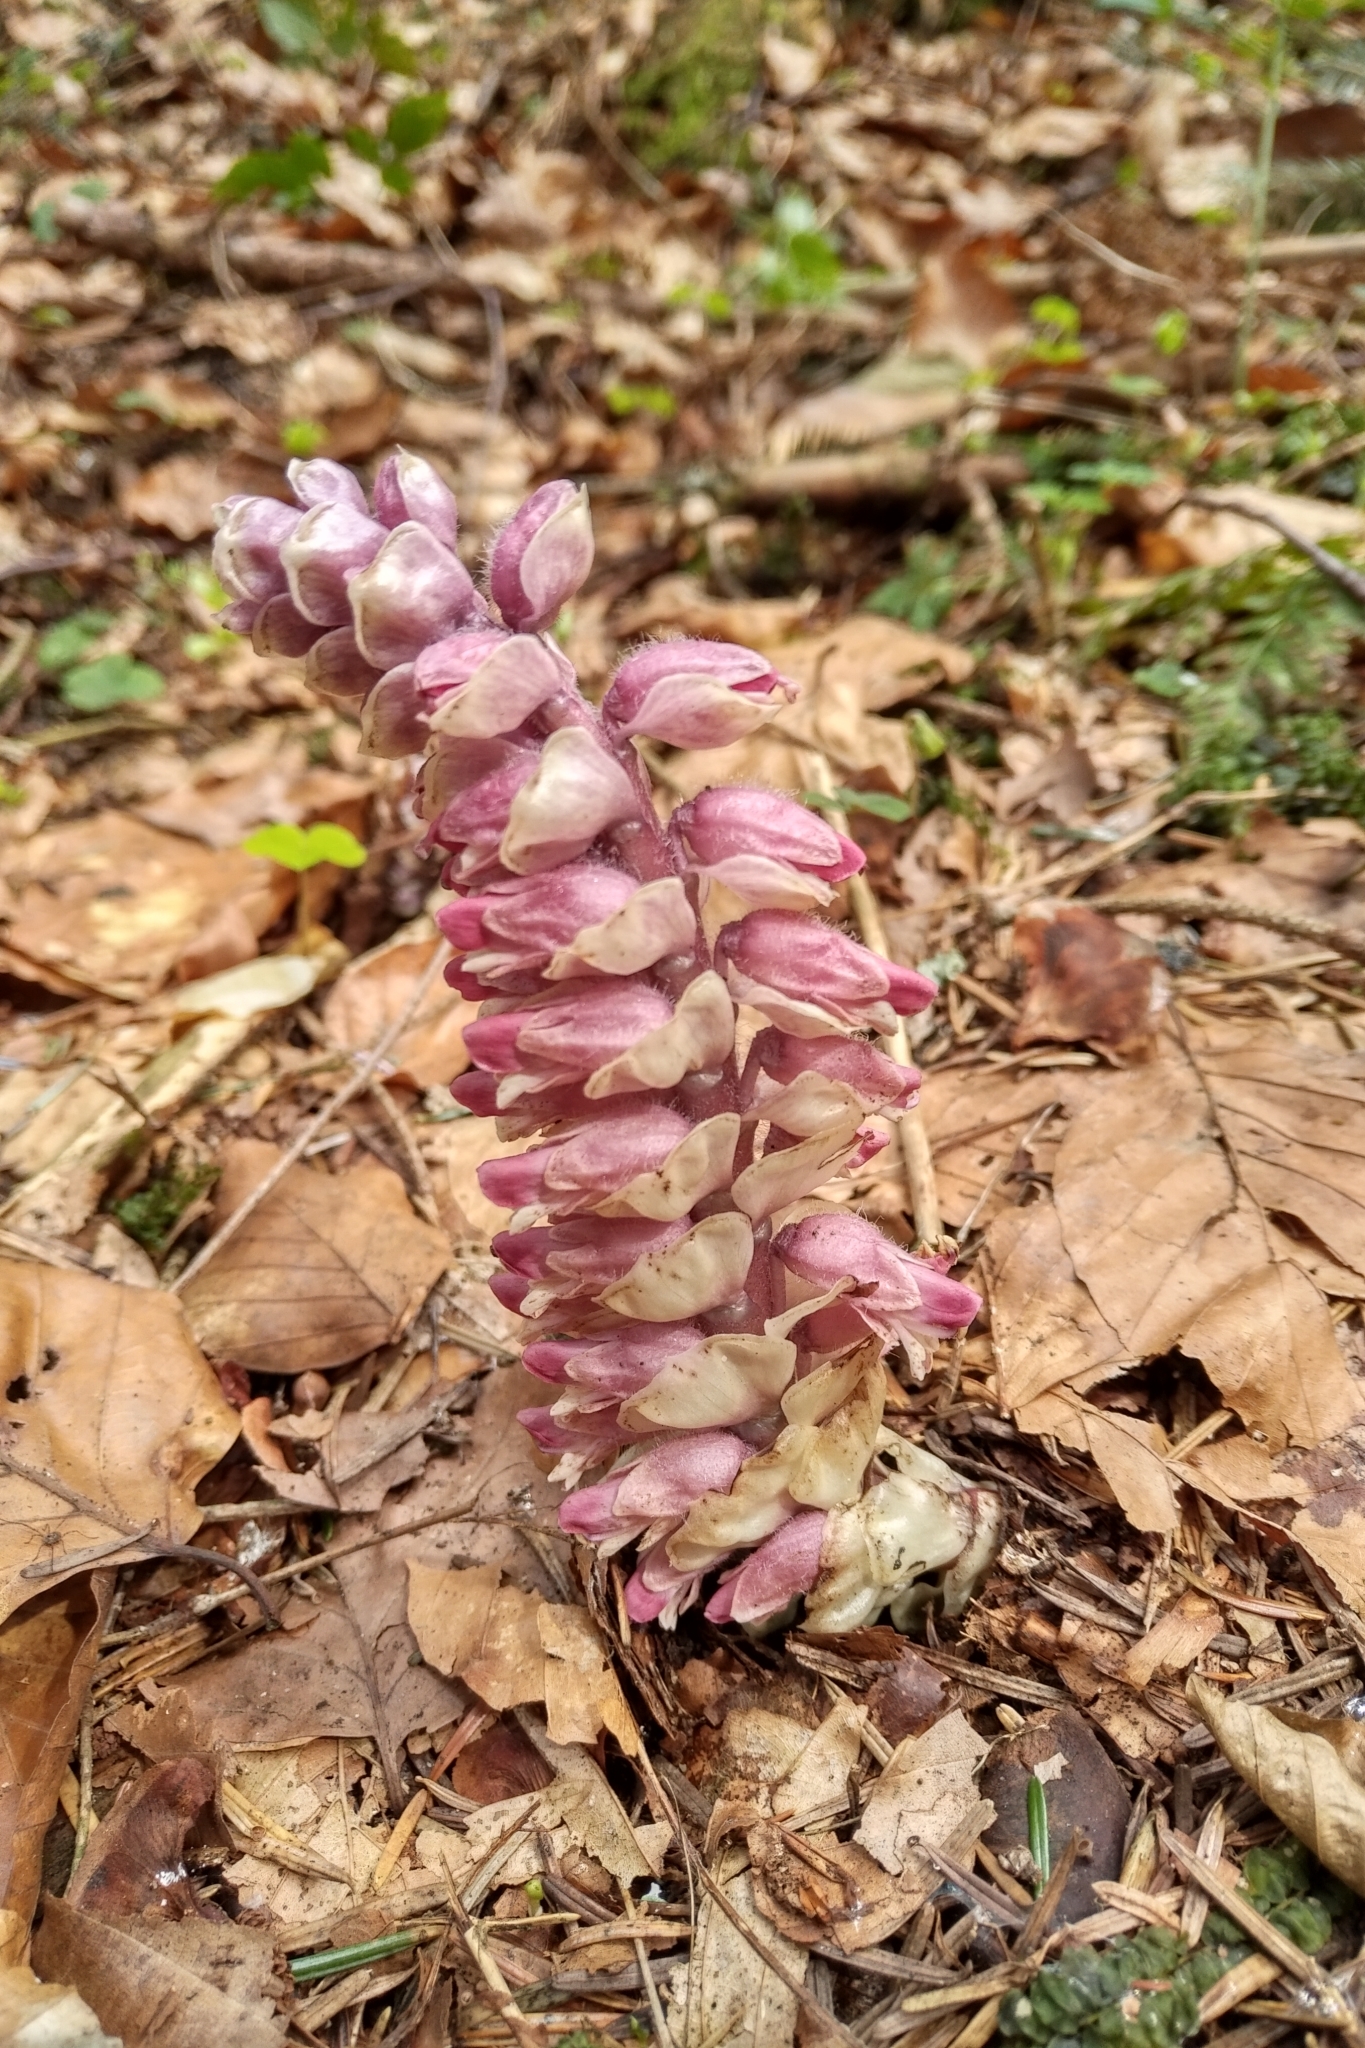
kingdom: Plantae
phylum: Tracheophyta
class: Magnoliopsida
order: Lamiales
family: Orobanchaceae
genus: Lathraea
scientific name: Lathraea squamaria
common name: Toothwort
